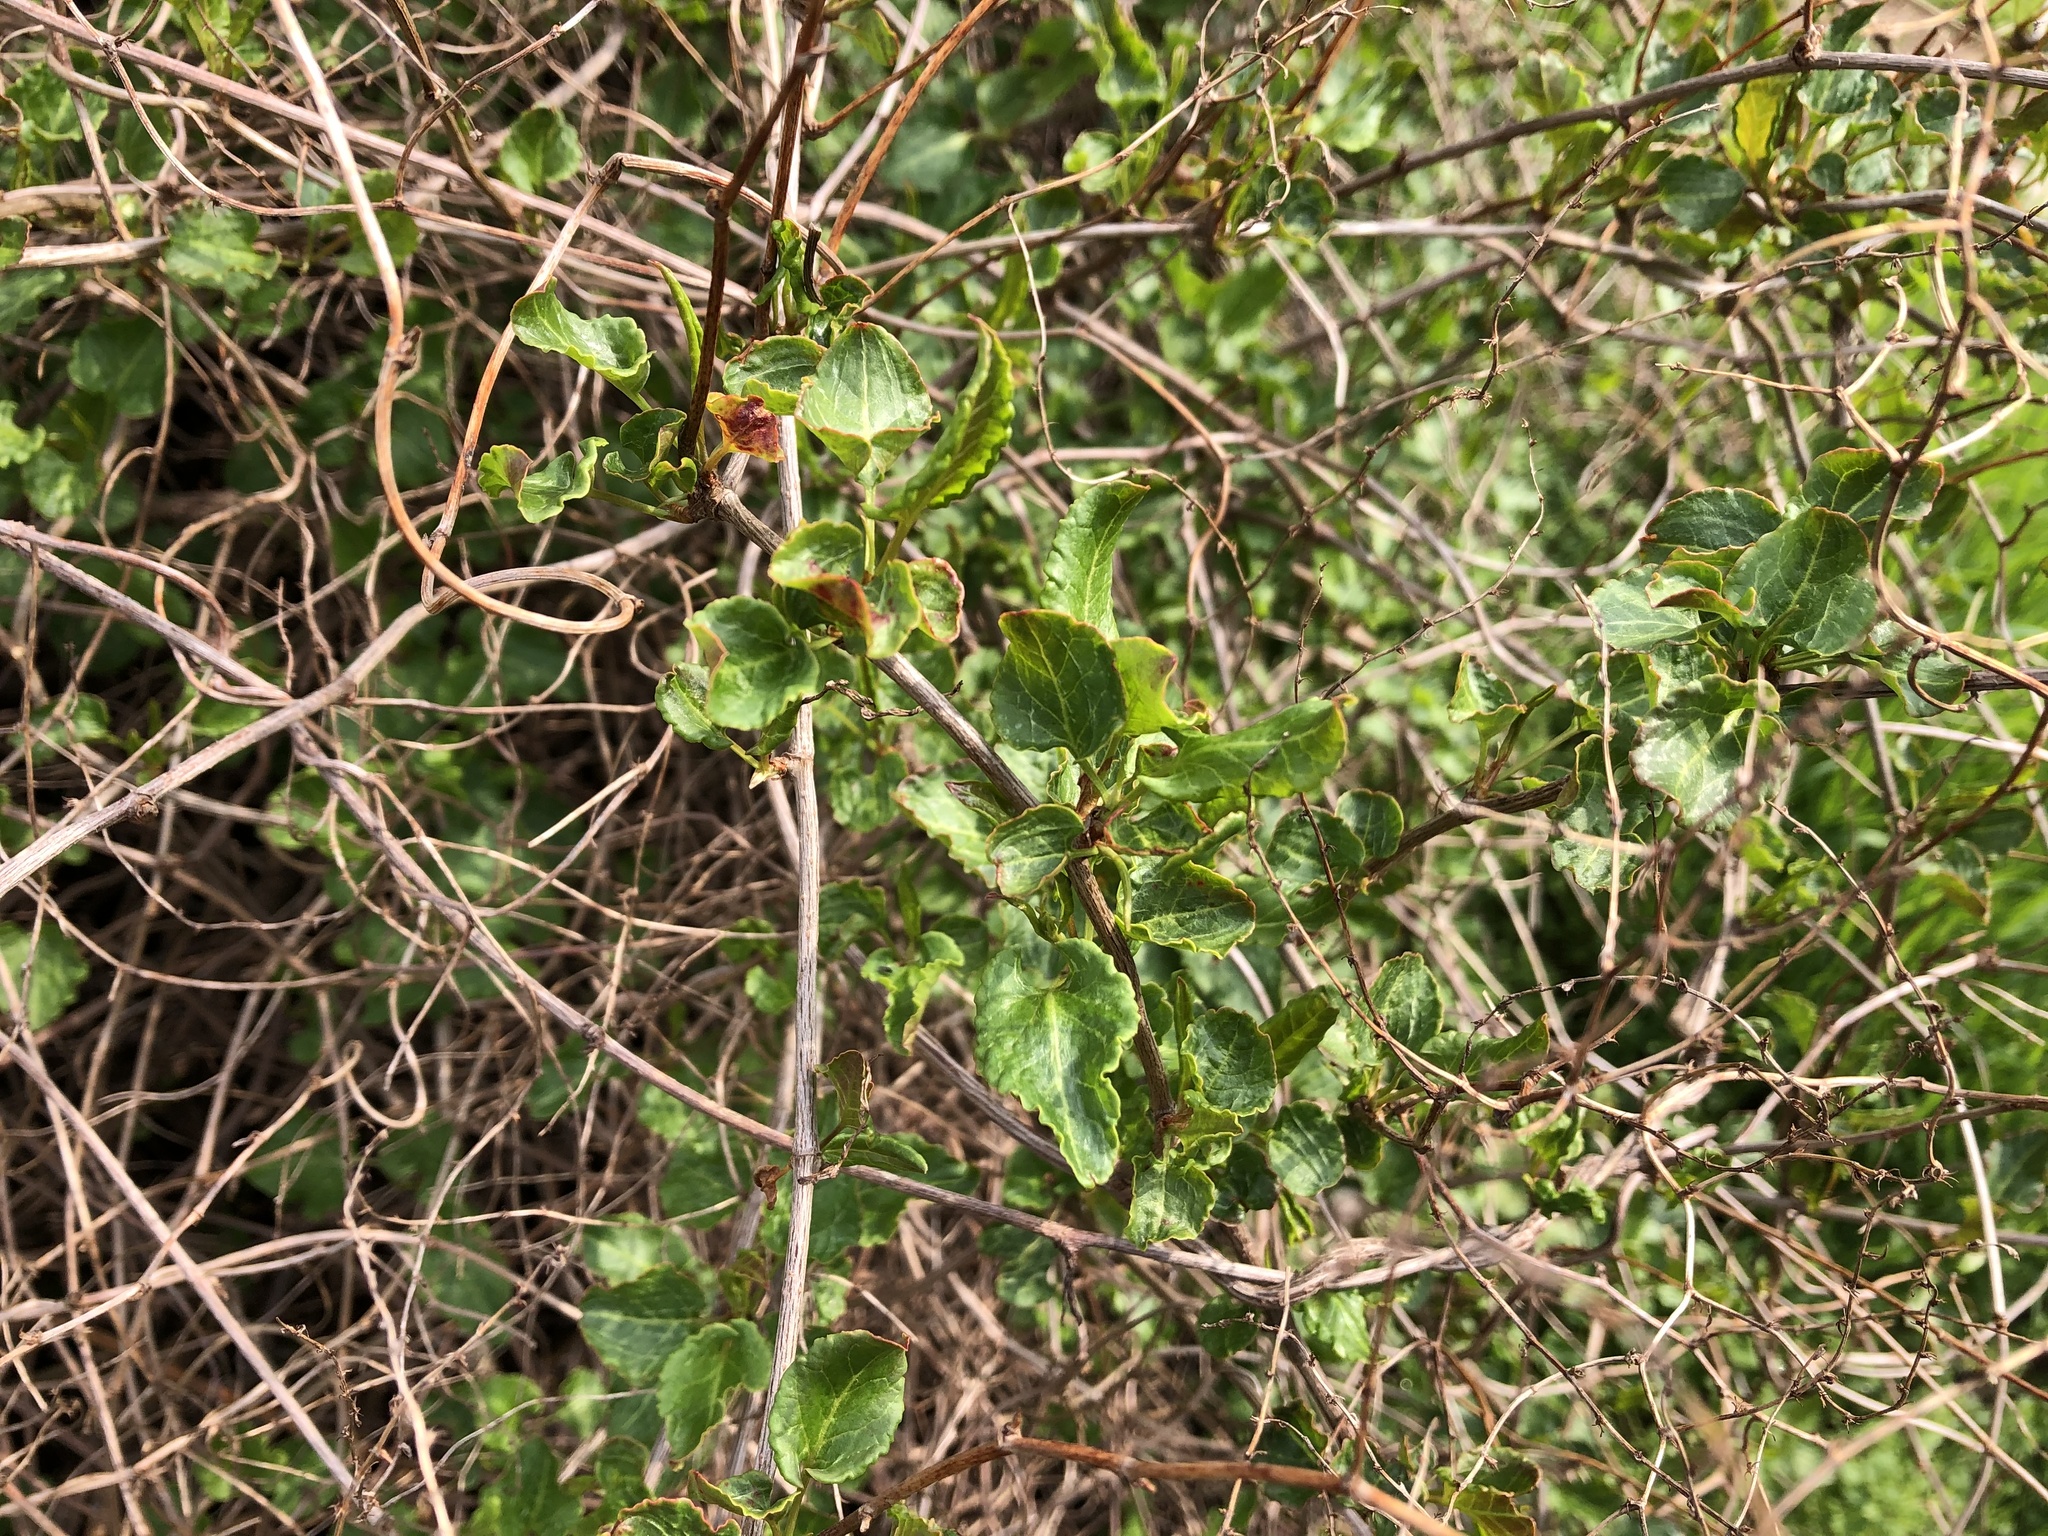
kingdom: Plantae
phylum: Tracheophyta
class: Magnoliopsida
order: Caryophyllales
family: Polygonaceae
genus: Fallopia
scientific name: Fallopia baldschuanica
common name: Russian-vine
